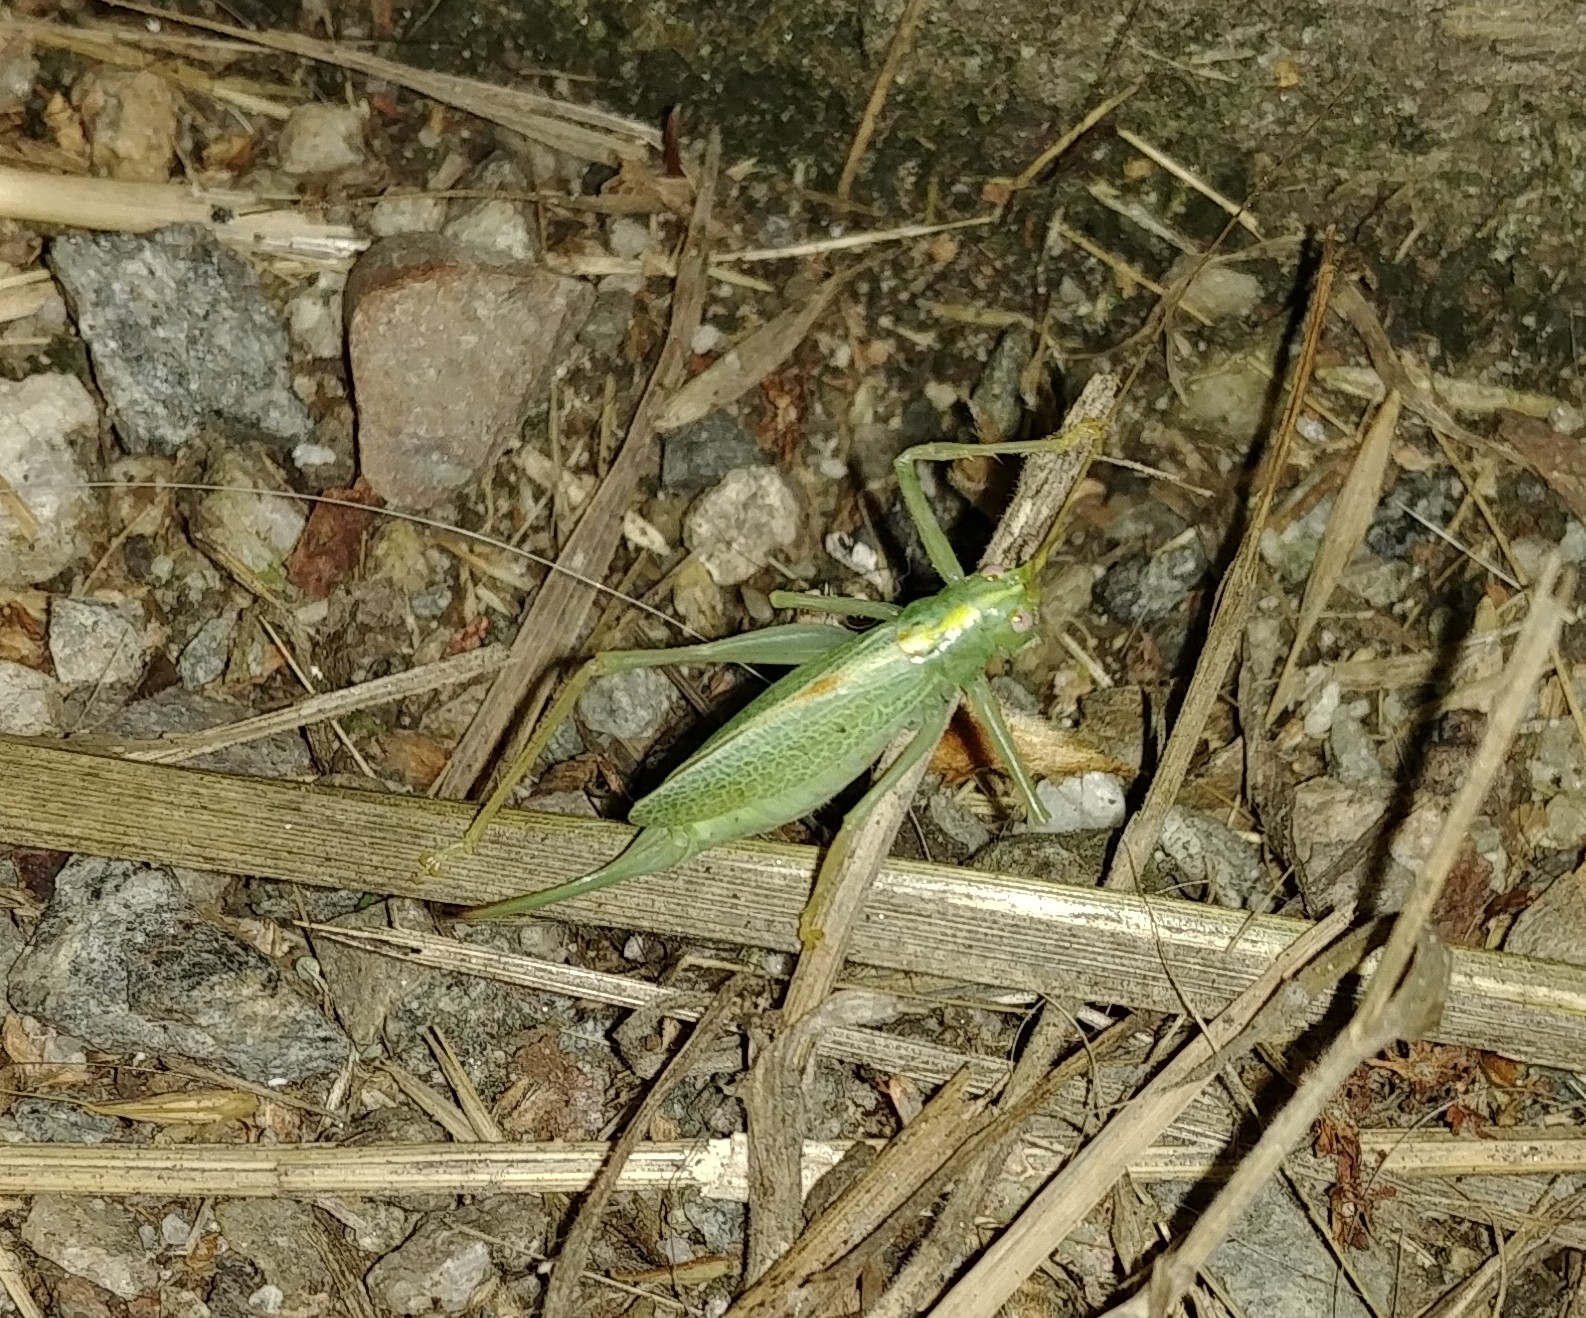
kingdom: Animalia
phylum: Arthropoda
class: Insecta
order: Orthoptera
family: Tettigoniidae
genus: Meconema
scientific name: Meconema thalassinum
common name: Oak bush-cricket
